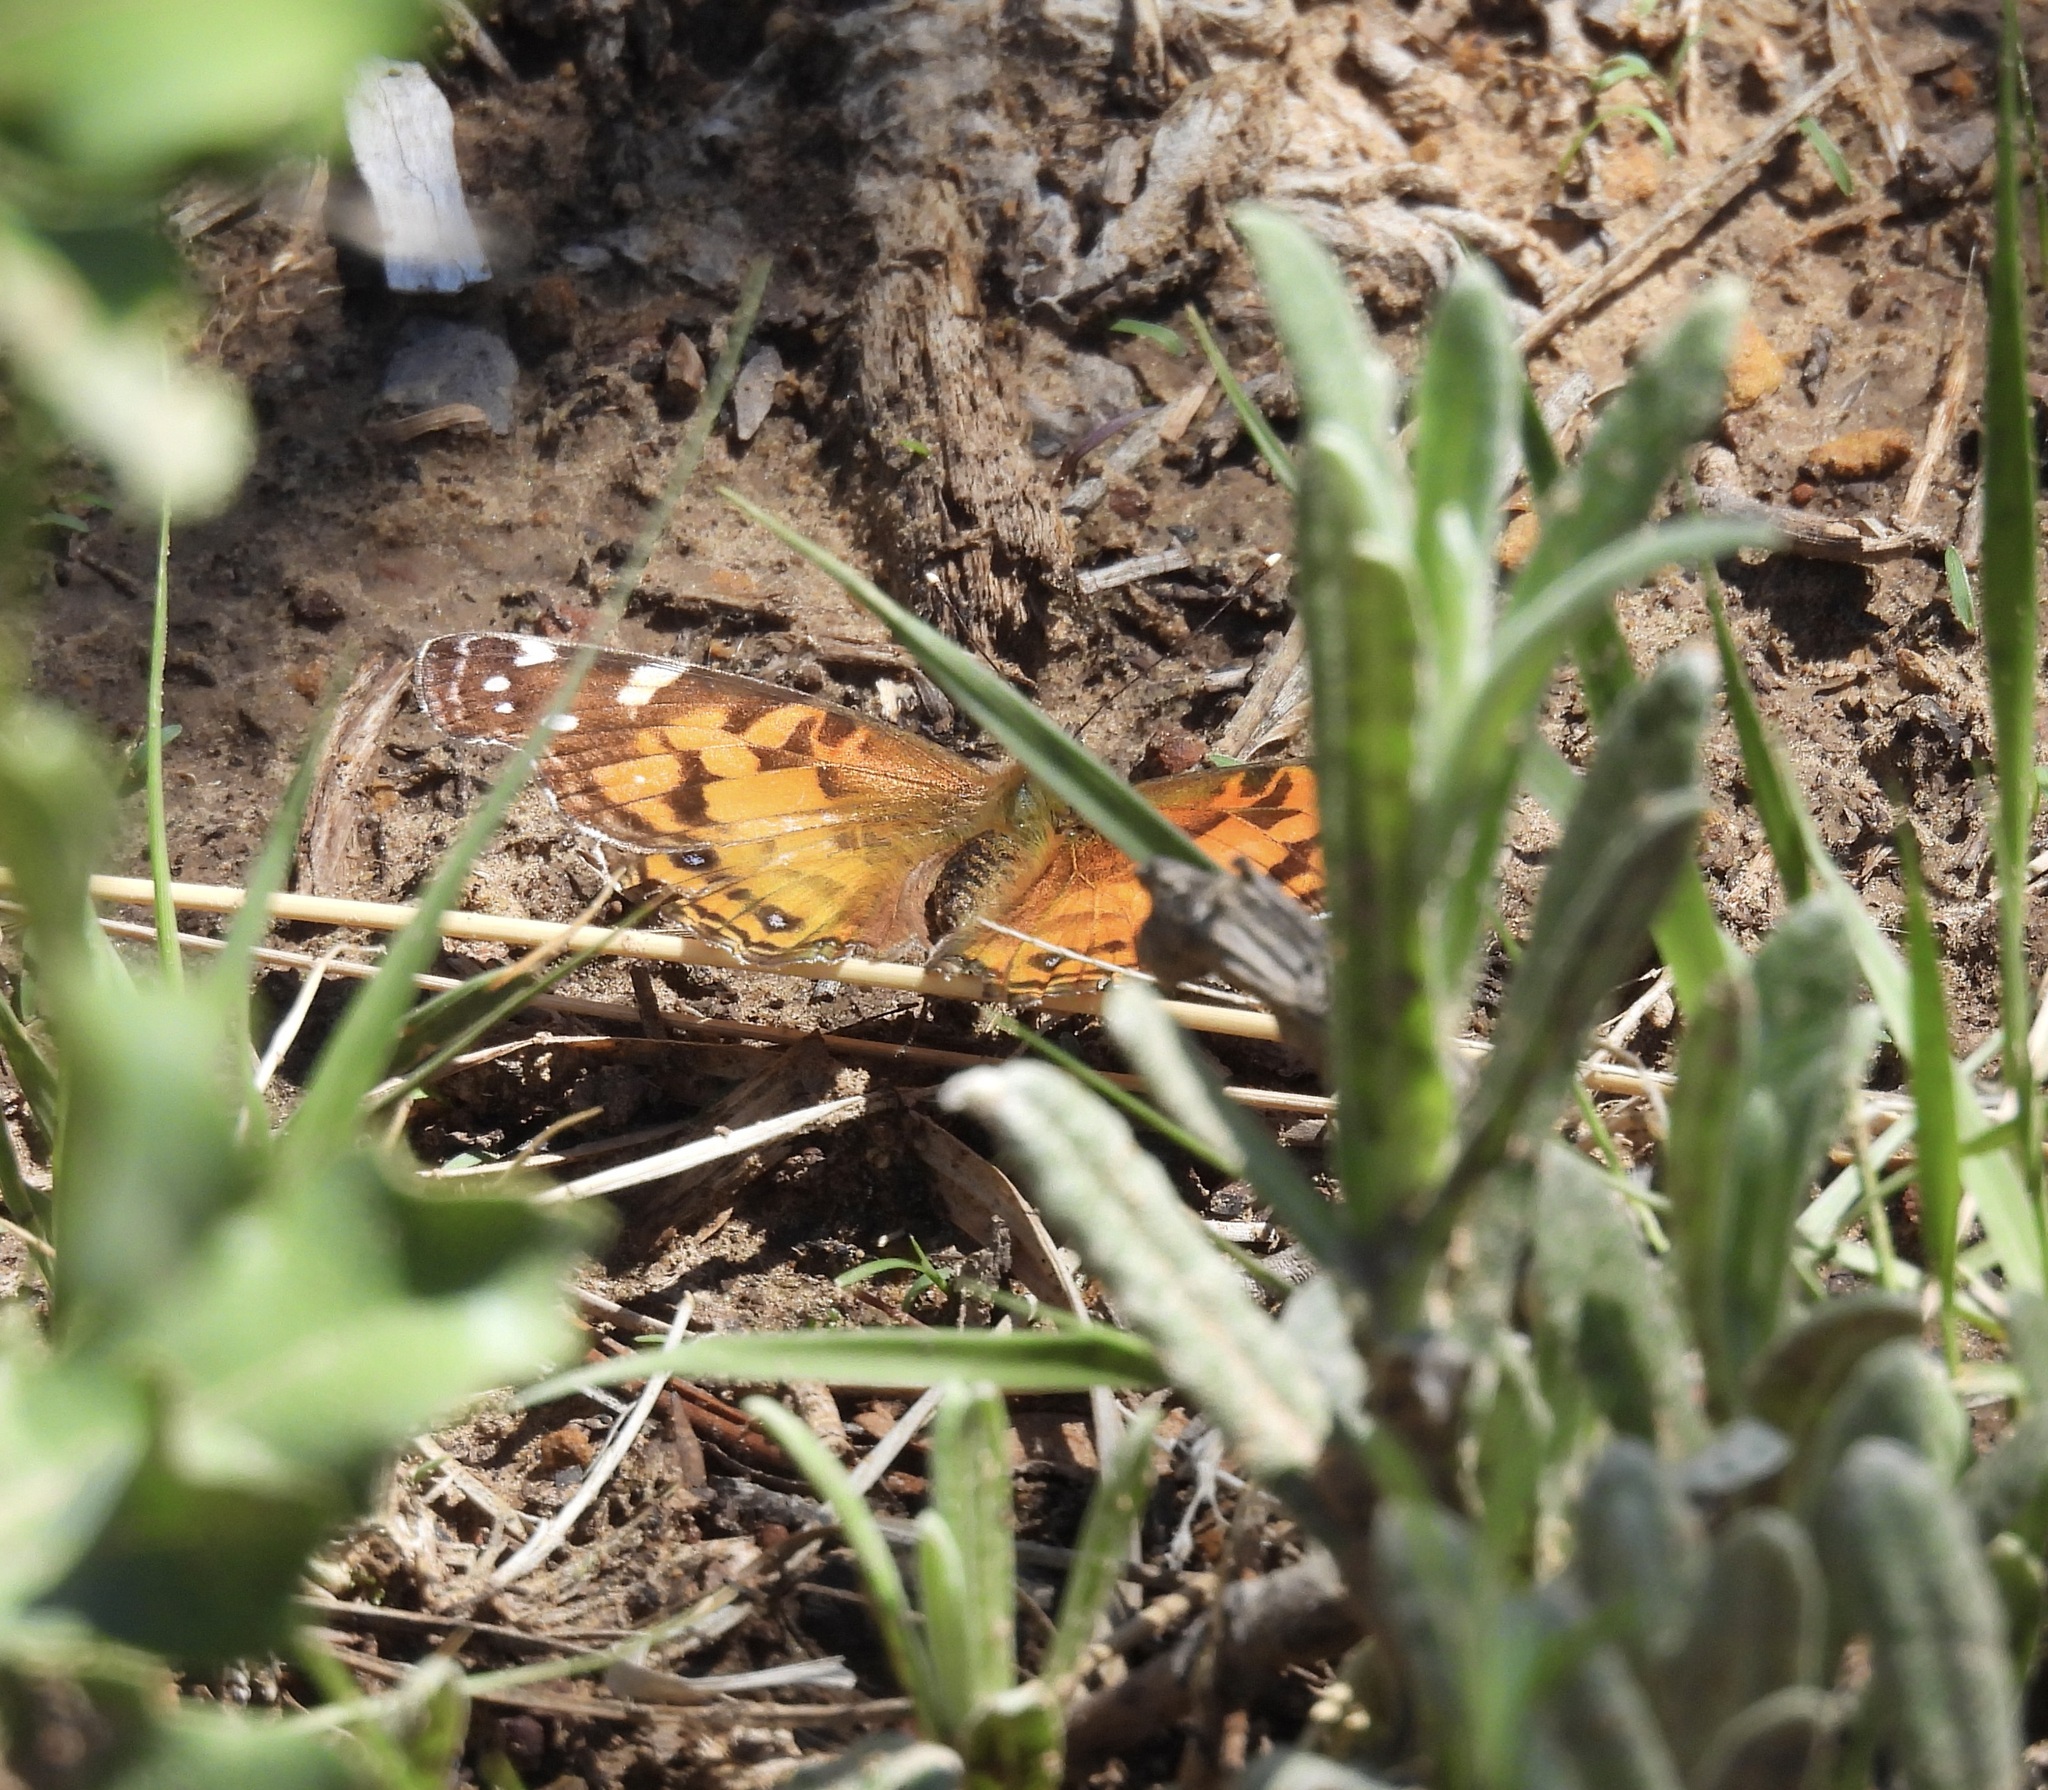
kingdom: Animalia
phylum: Arthropoda
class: Insecta
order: Lepidoptera
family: Nymphalidae
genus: Vanessa
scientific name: Vanessa virginiensis
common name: American lady
